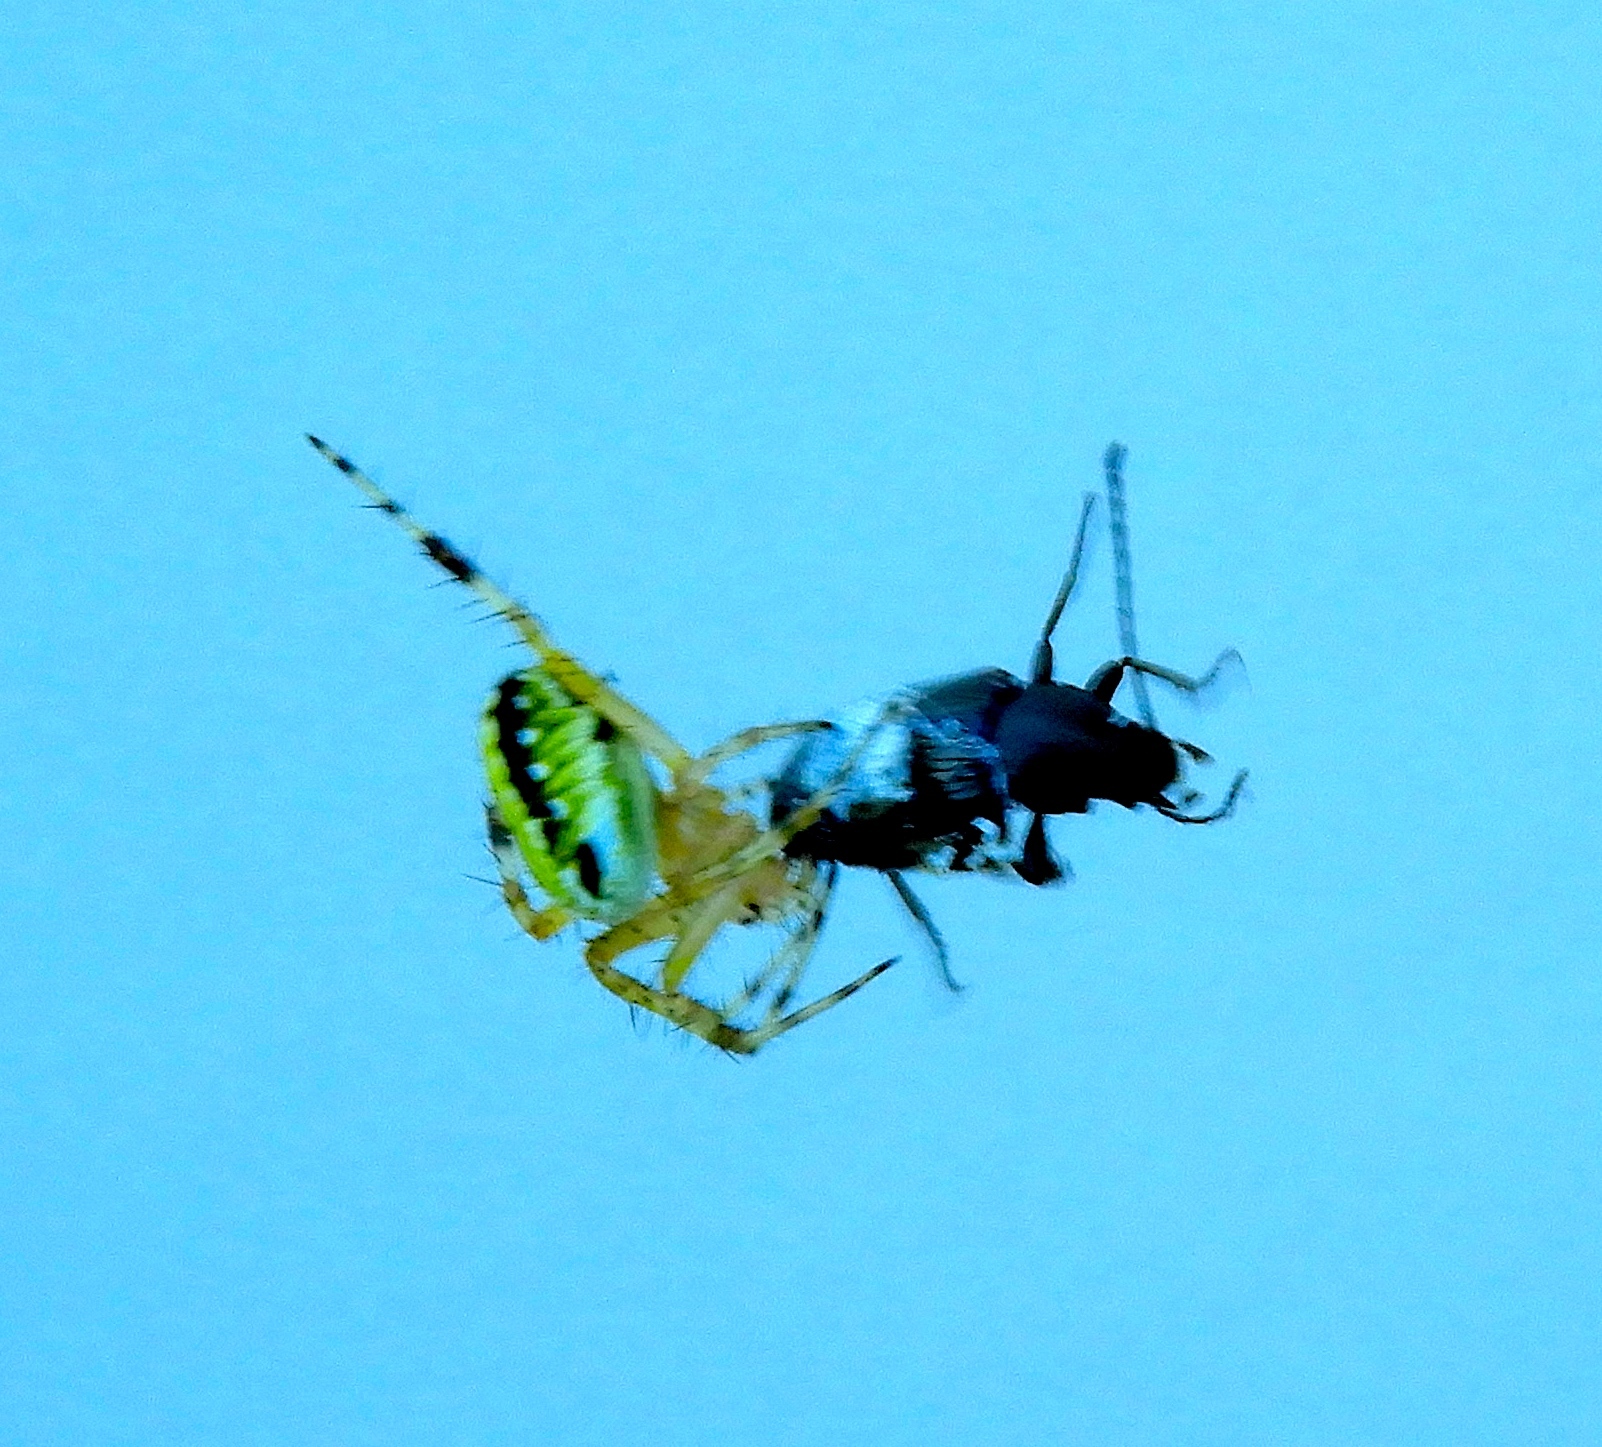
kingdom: Animalia
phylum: Arthropoda
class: Arachnida
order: Araneae
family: Araneidae
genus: Neoscona
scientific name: Neoscona oaxacensis
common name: Orb weavers
